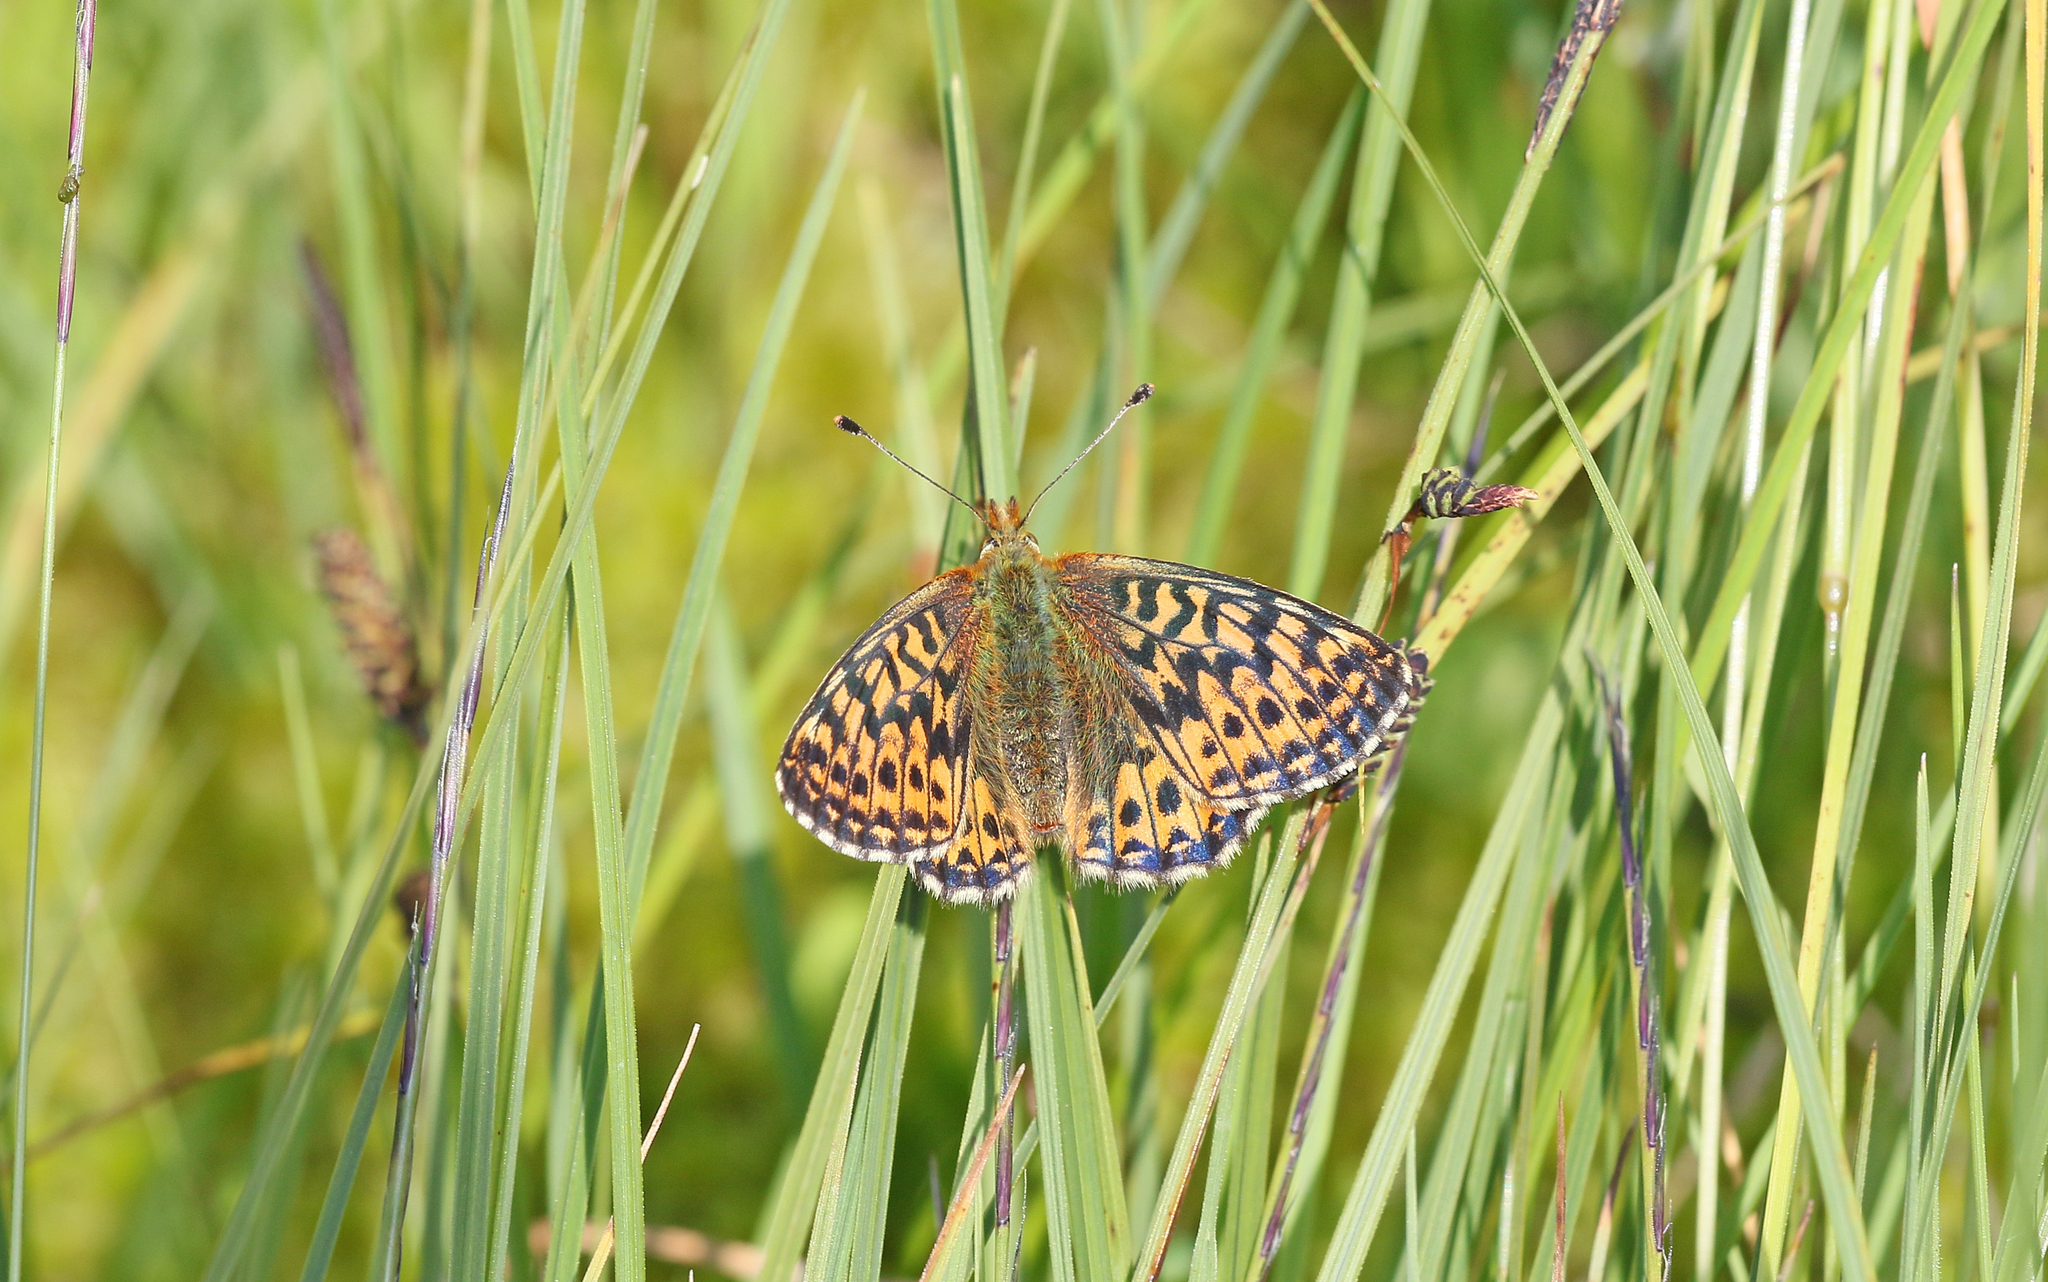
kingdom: Animalia
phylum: Arthropoda
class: Insecta
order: Lepidoptera
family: Nymphalidae
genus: Boloria
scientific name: Boloria aquilonaris
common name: Cranberry fritillary
